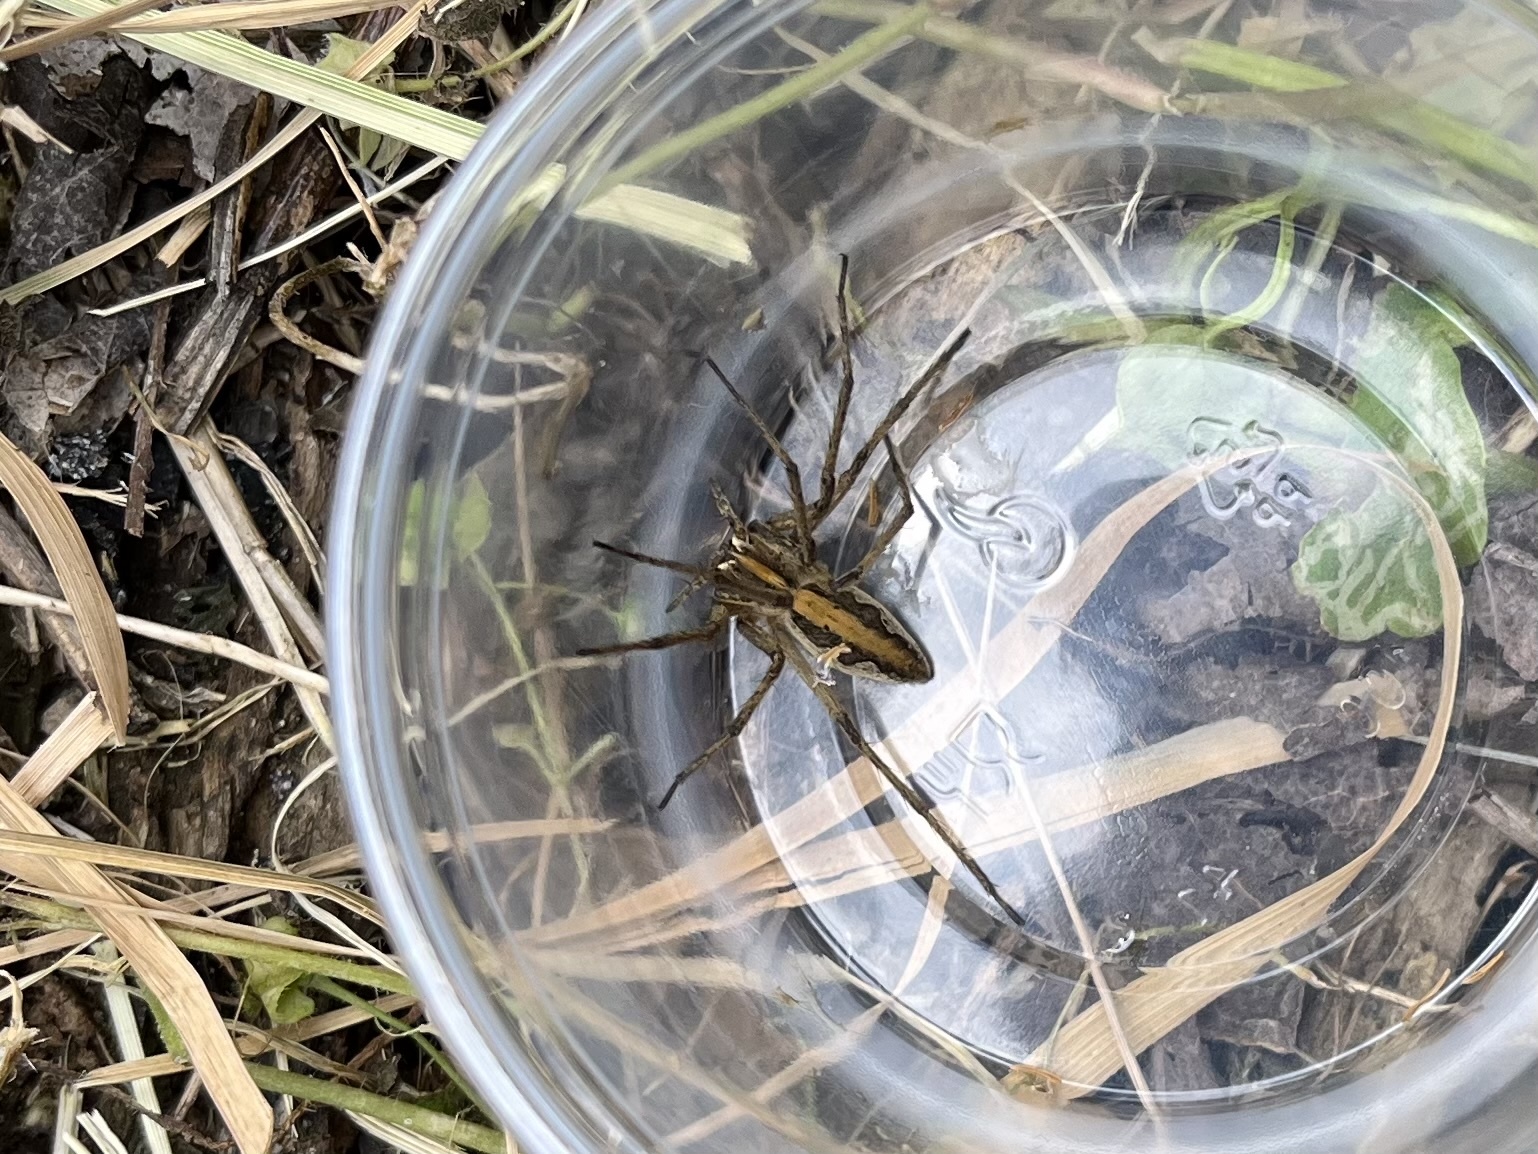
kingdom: Animalia
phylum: Arthropoda
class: Arachnida
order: Araneae
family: Pisauridae
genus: Pisaura
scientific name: Pisaura mirabilis
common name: Tent spider
